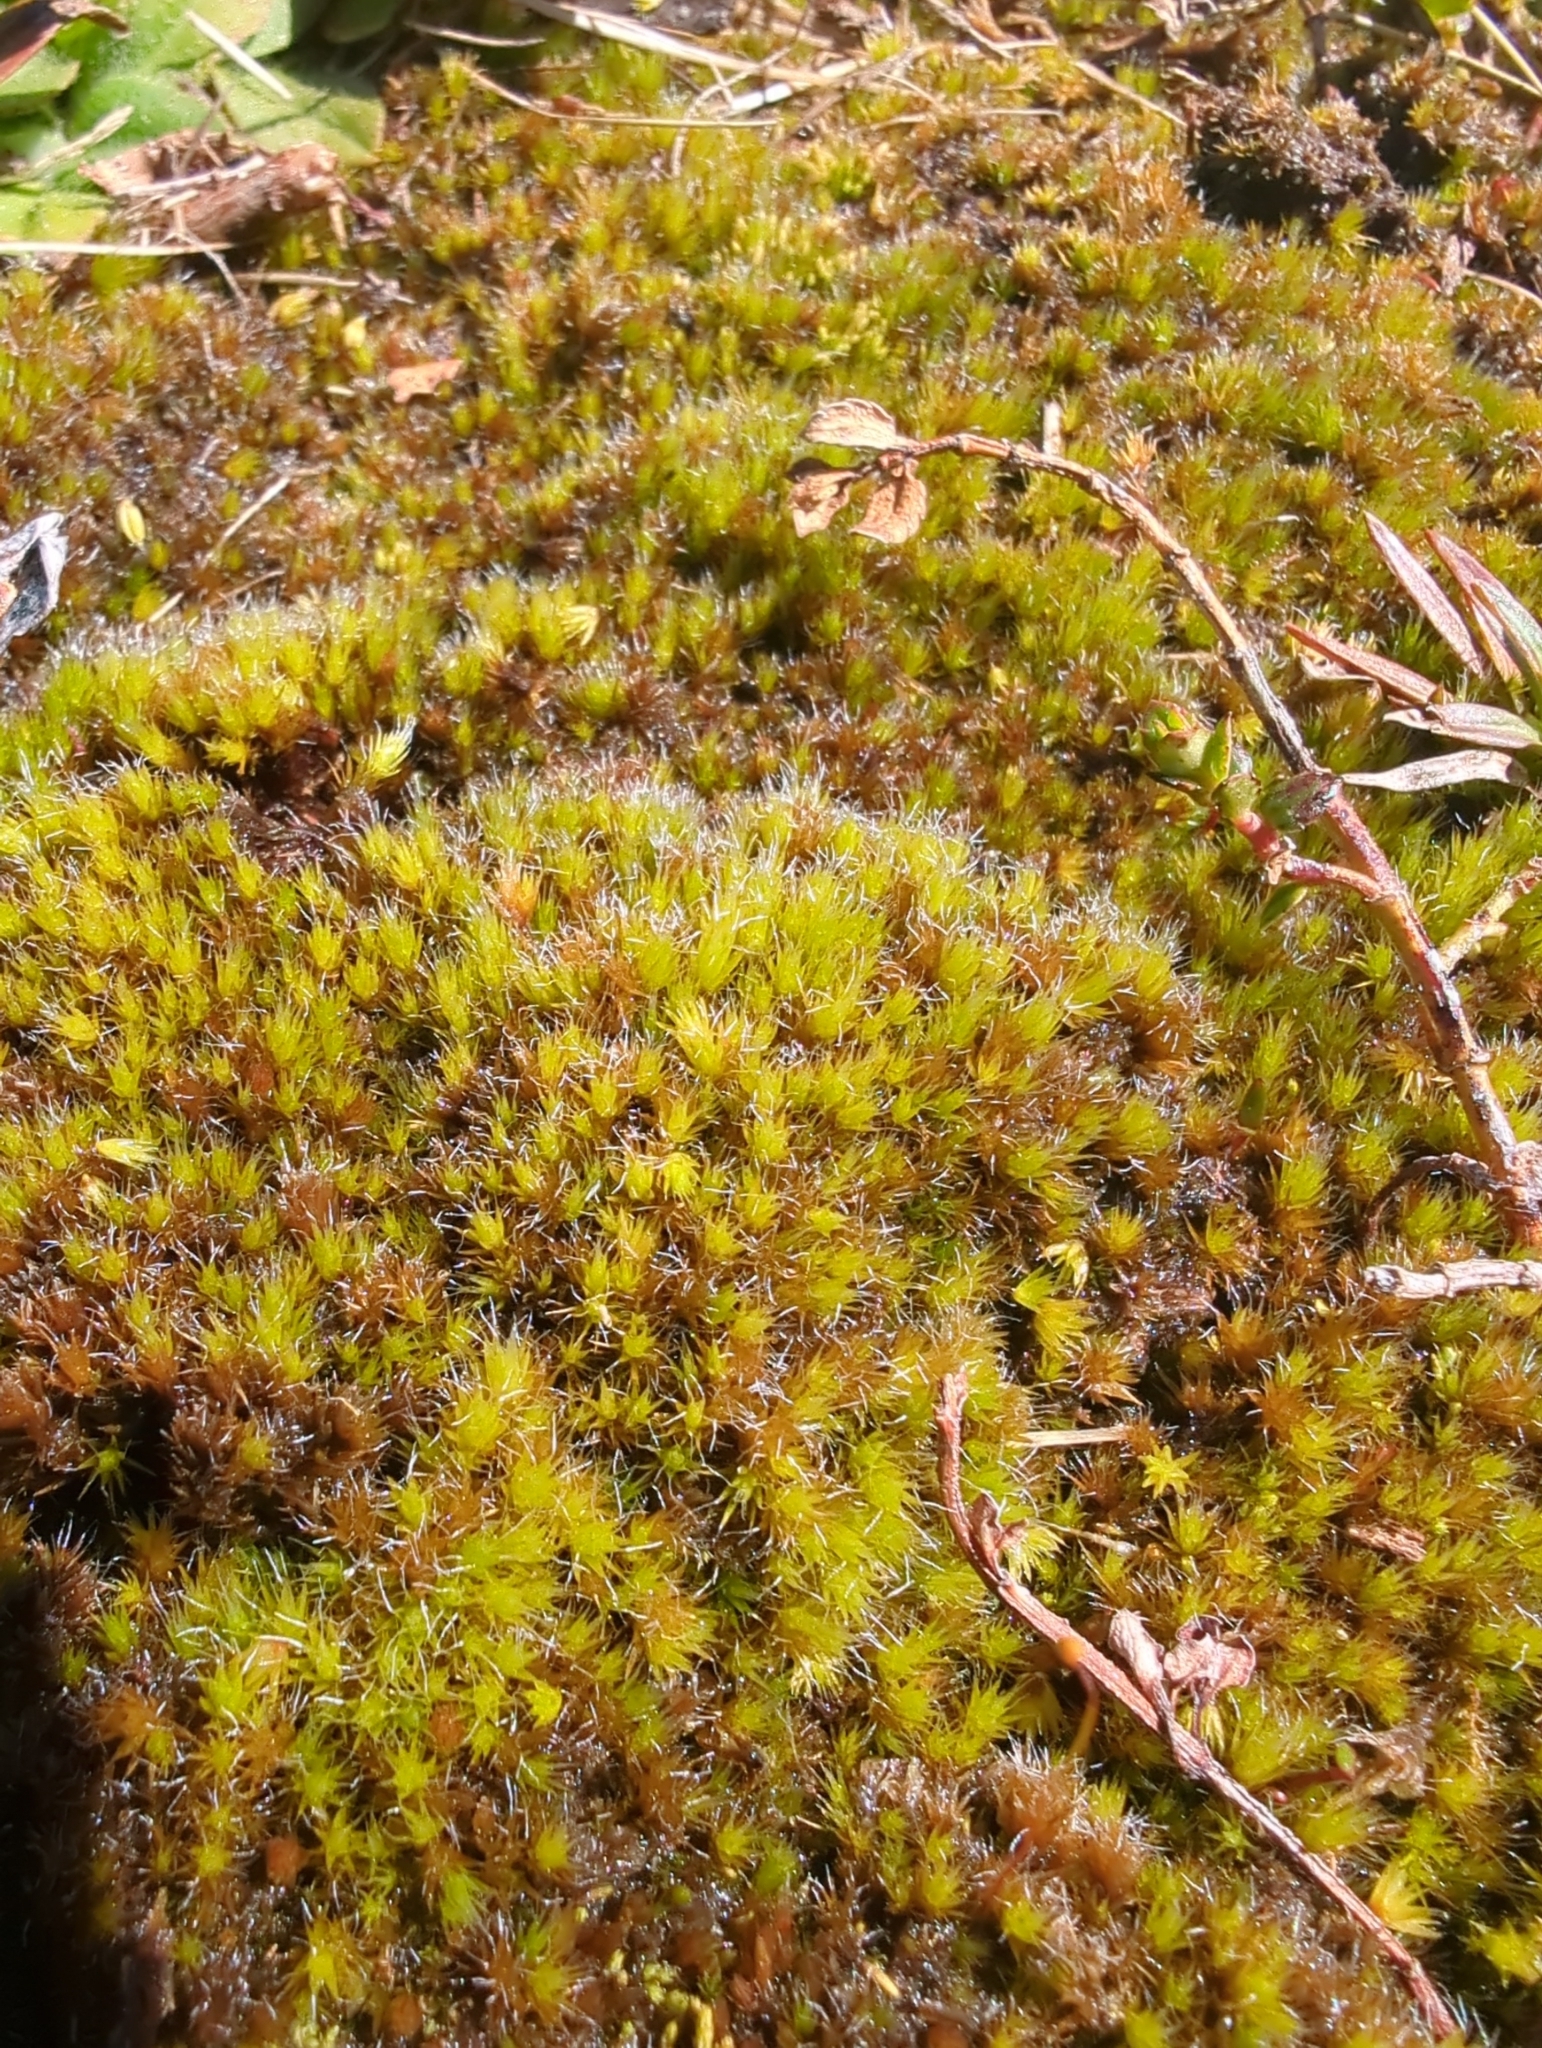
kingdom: Plantae
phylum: Bryophyta
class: Bryopsida
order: Dicranales
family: Leucobryaceae
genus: Campylopus
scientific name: Campylopus introflexus
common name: Heath star moss
